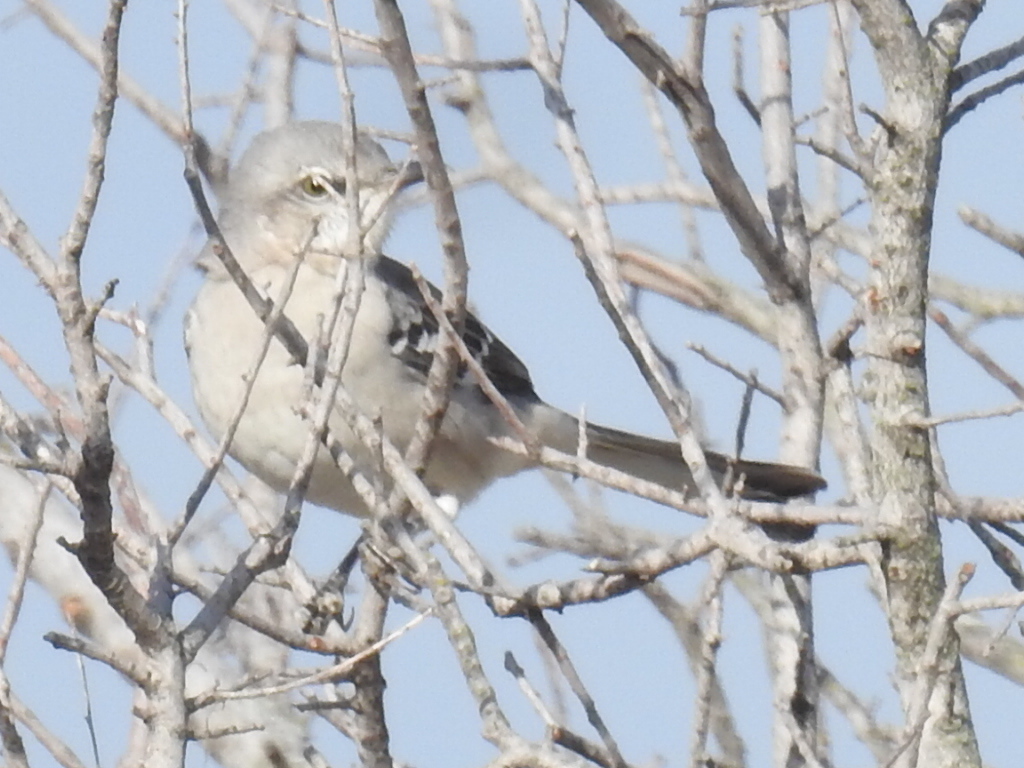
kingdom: Animalia
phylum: Chordata
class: Aves
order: Passeriformes
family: Mimidae
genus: Mimus
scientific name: Mimus polyglottos
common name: Northern mockingbird
